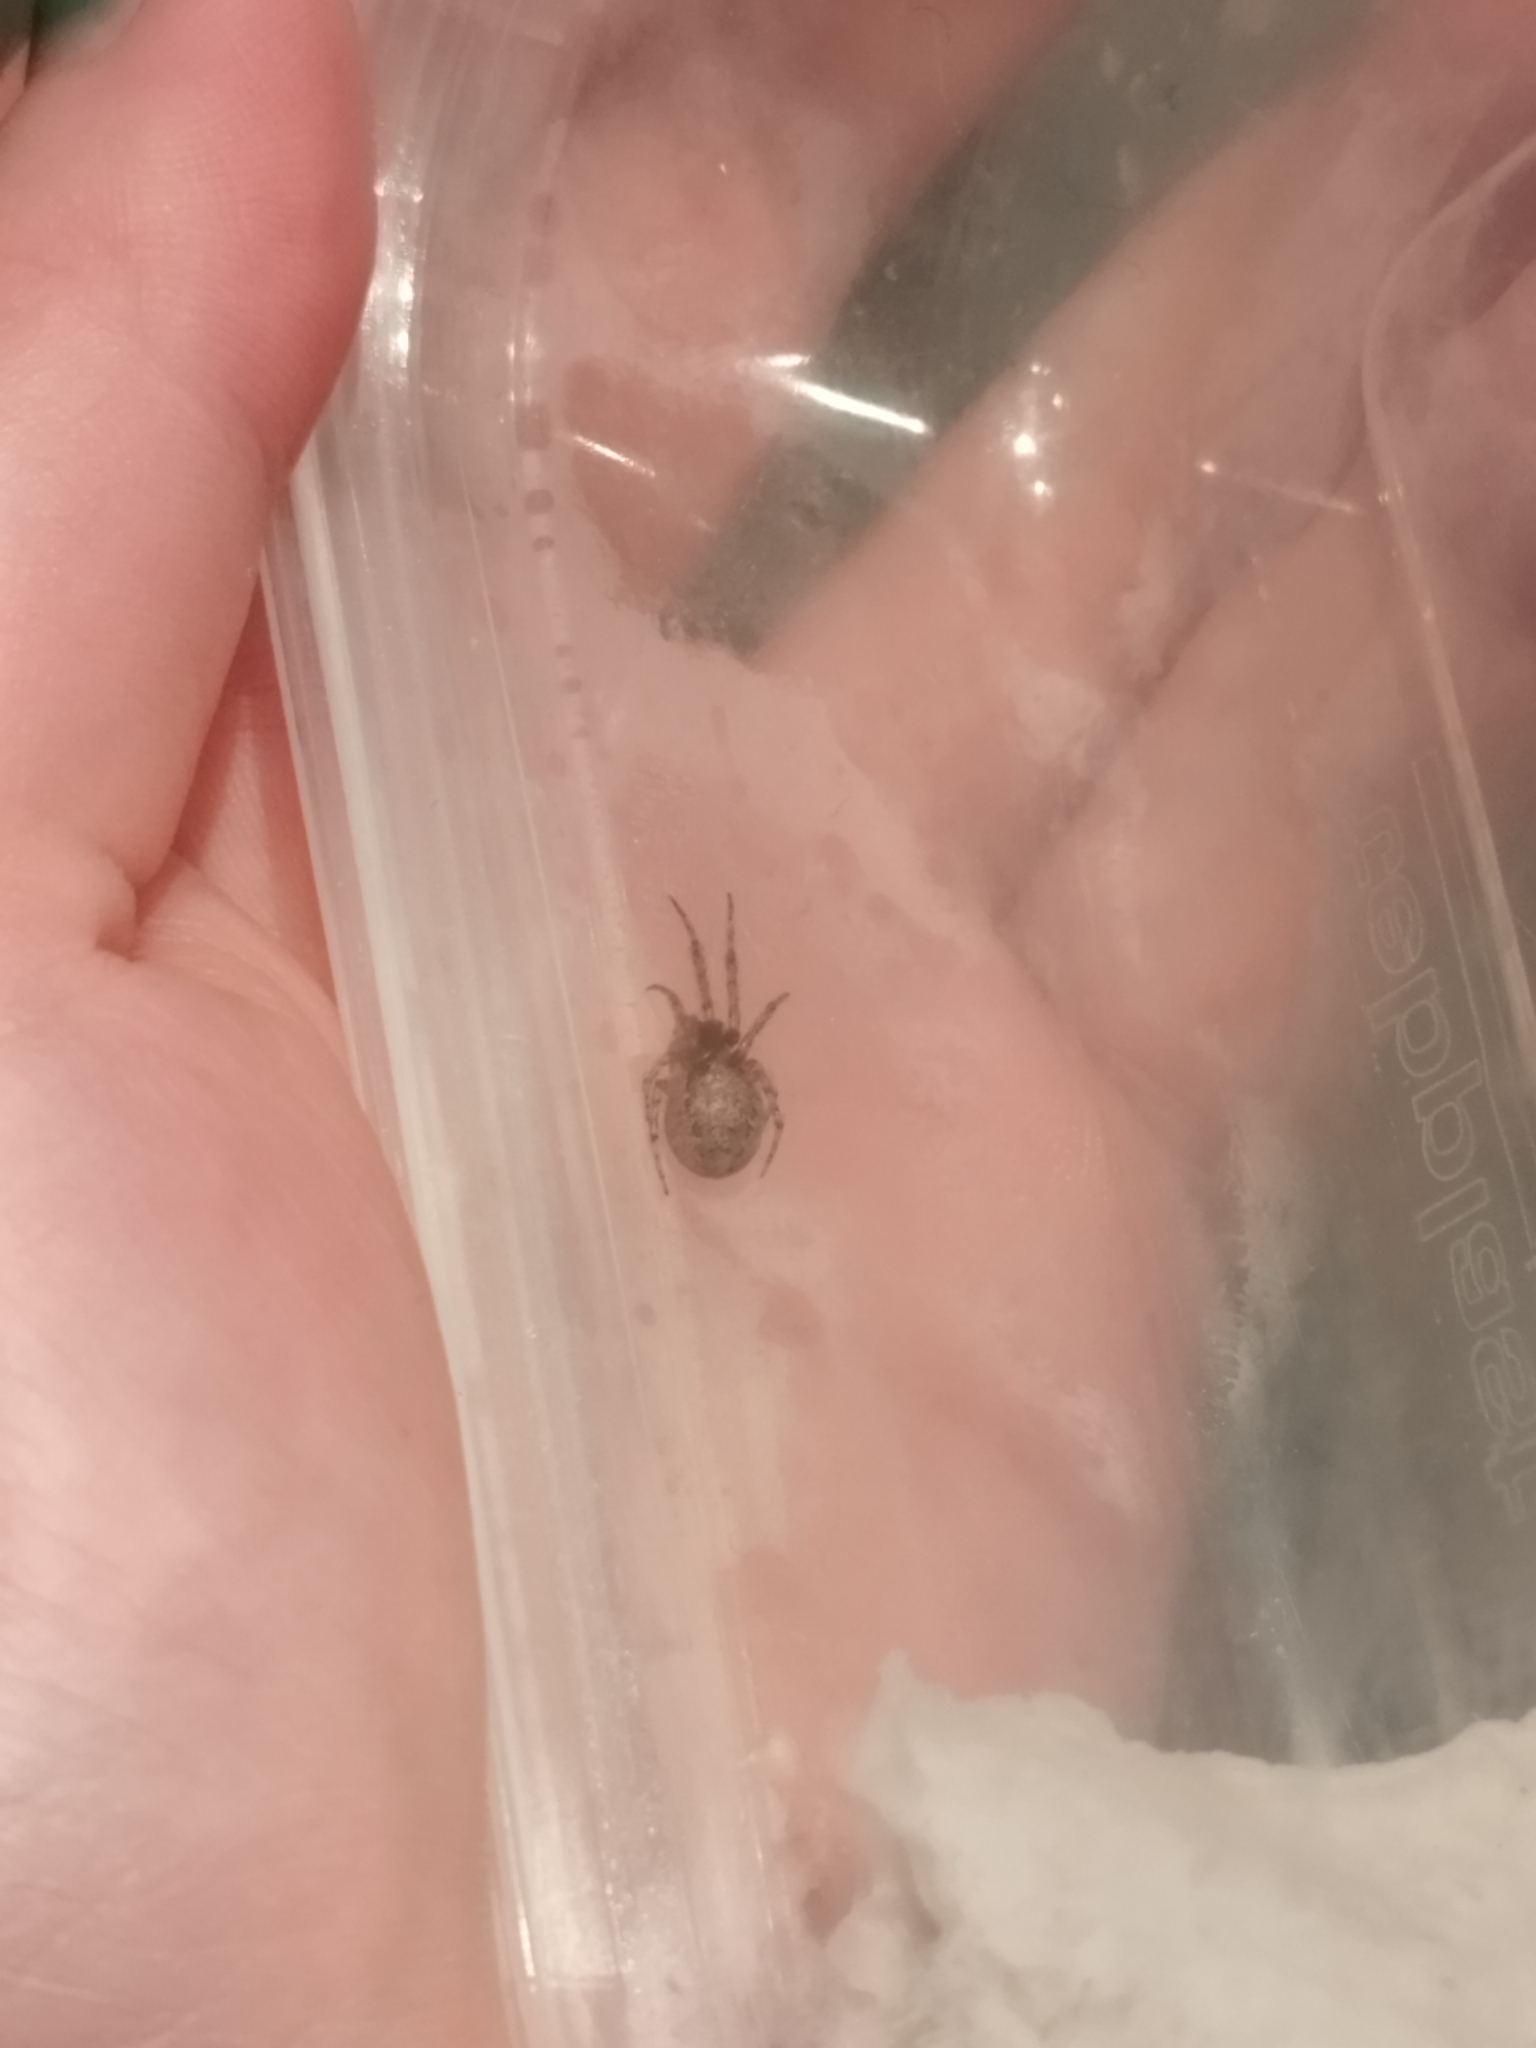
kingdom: Animalia
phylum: Arthropoda
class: Arachnida
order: Araneae
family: Araneidae
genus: Zygiella
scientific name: Zygiella x-notata
